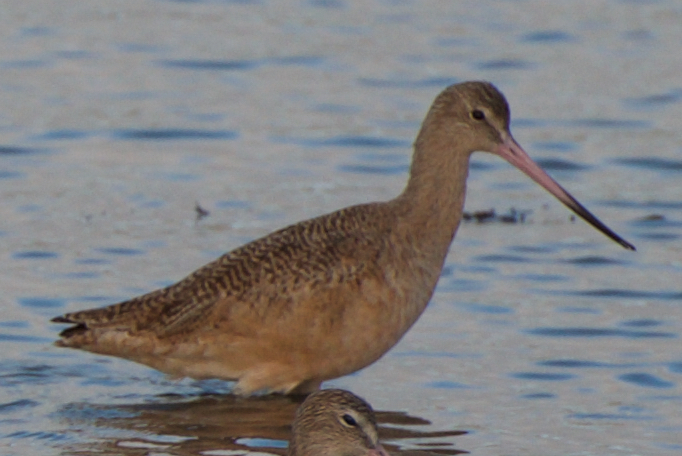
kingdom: Animalia
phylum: Chordata
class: Aves
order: Charadriiformes
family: Scolopacidae
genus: Limosa
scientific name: Limosa fedoa
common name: Marbled godwit
